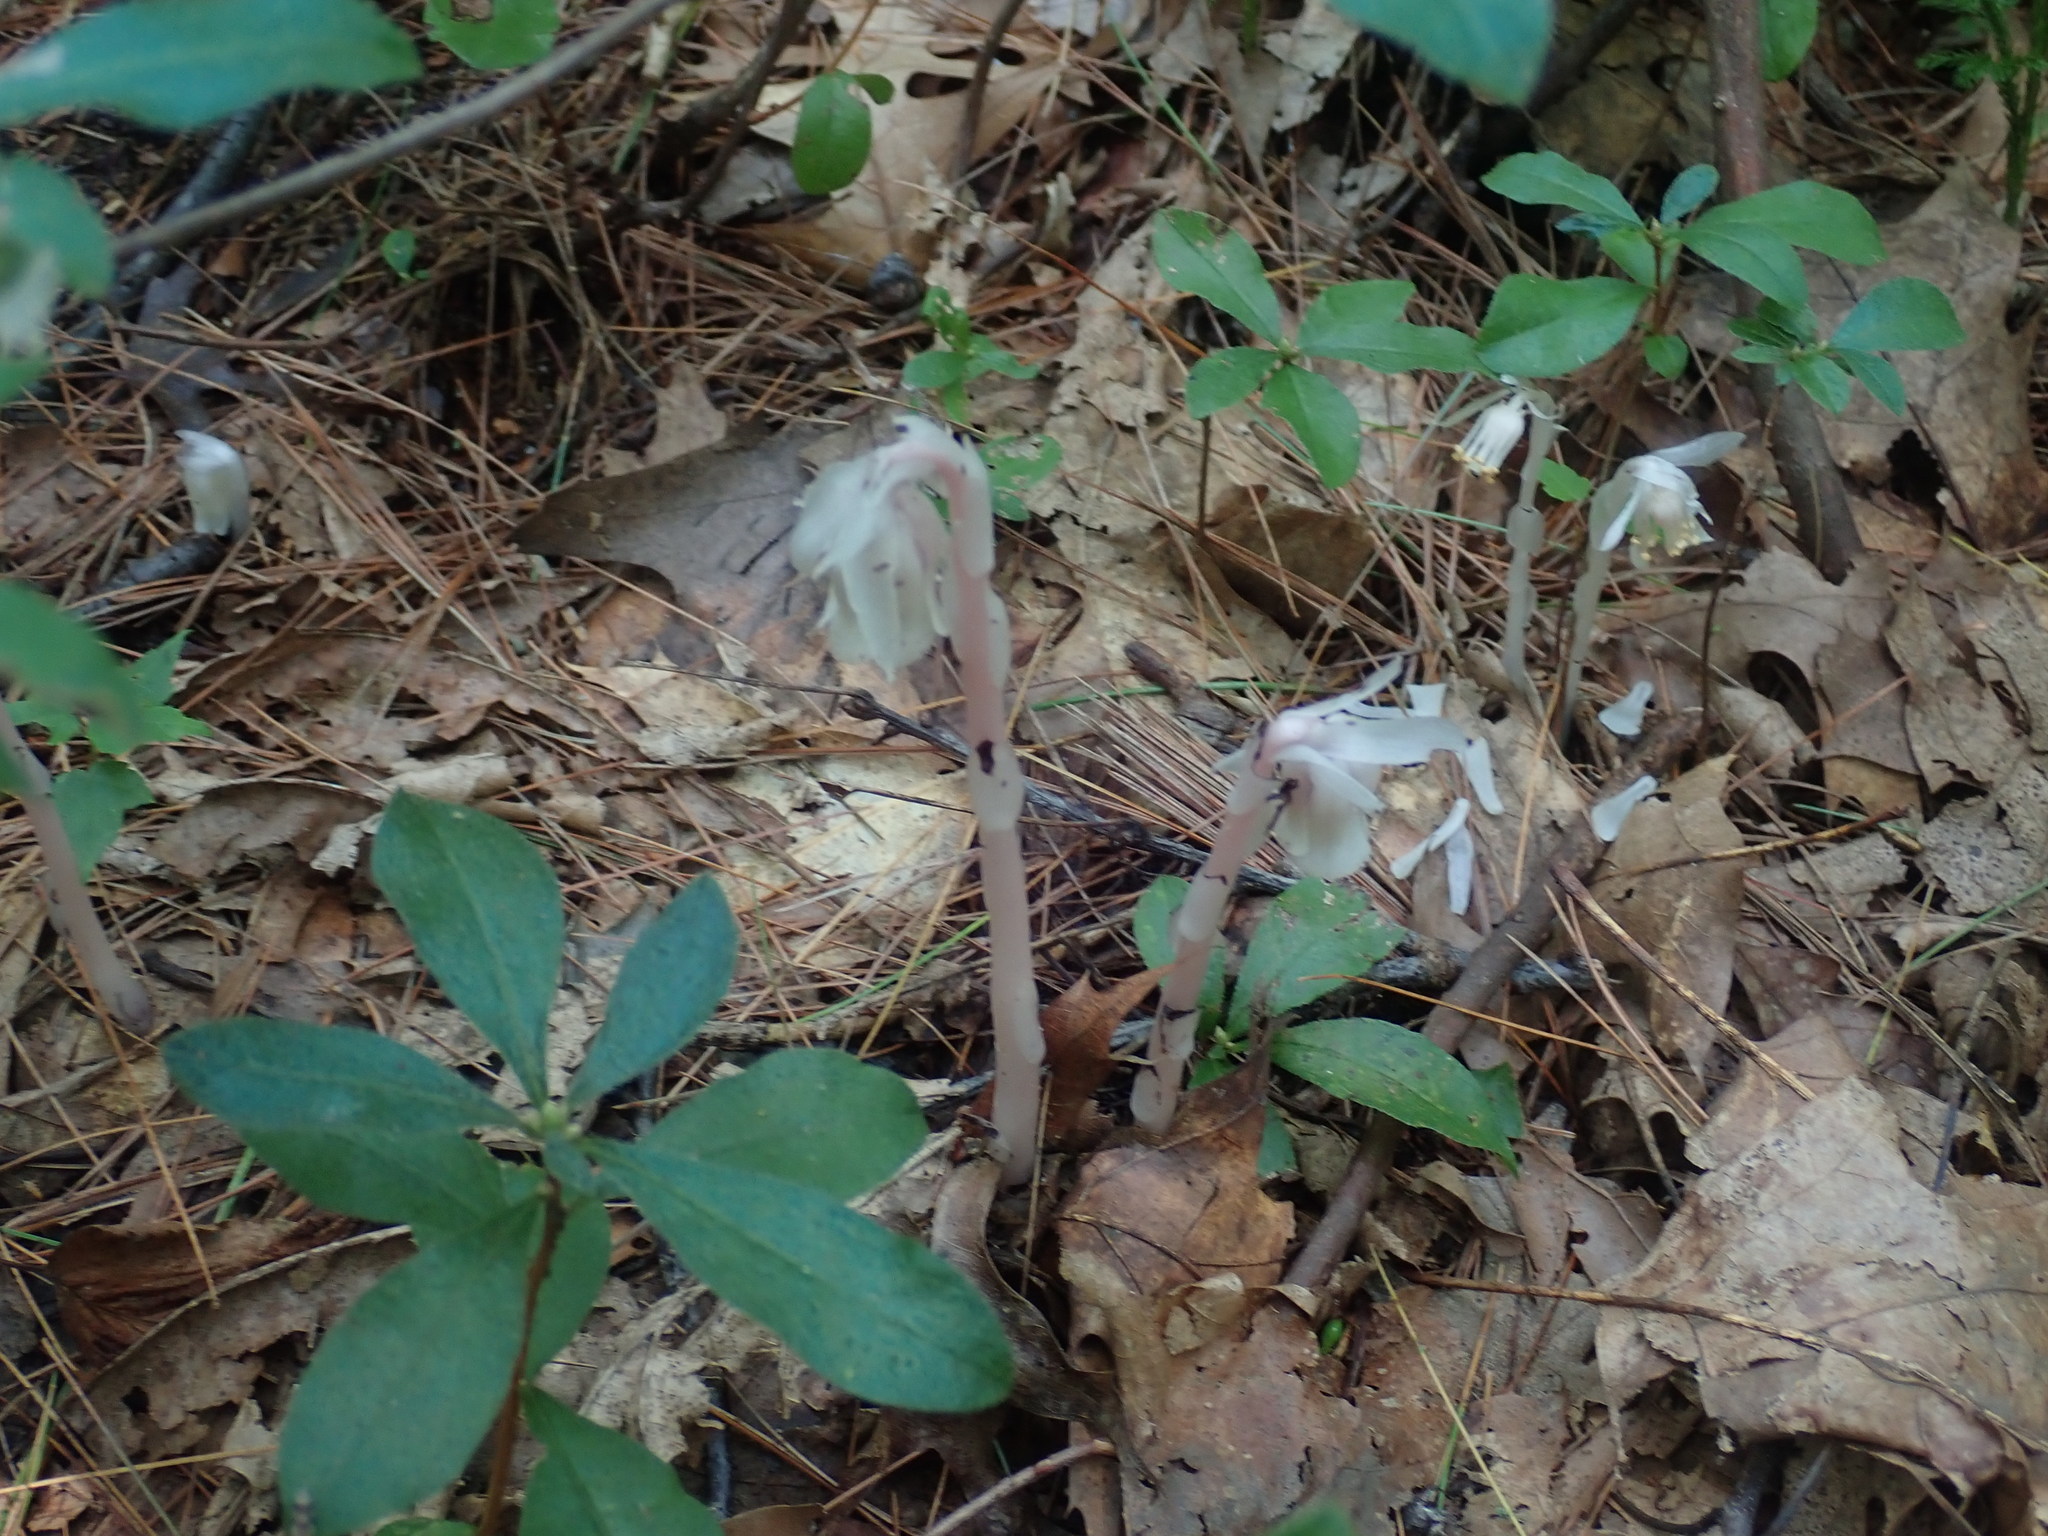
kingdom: Plantae
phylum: Tracheophyta
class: Magnoliopsida
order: Ericales
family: Ericaceae
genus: Monotropa
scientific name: Monotropa uniflora
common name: Convulsion root
